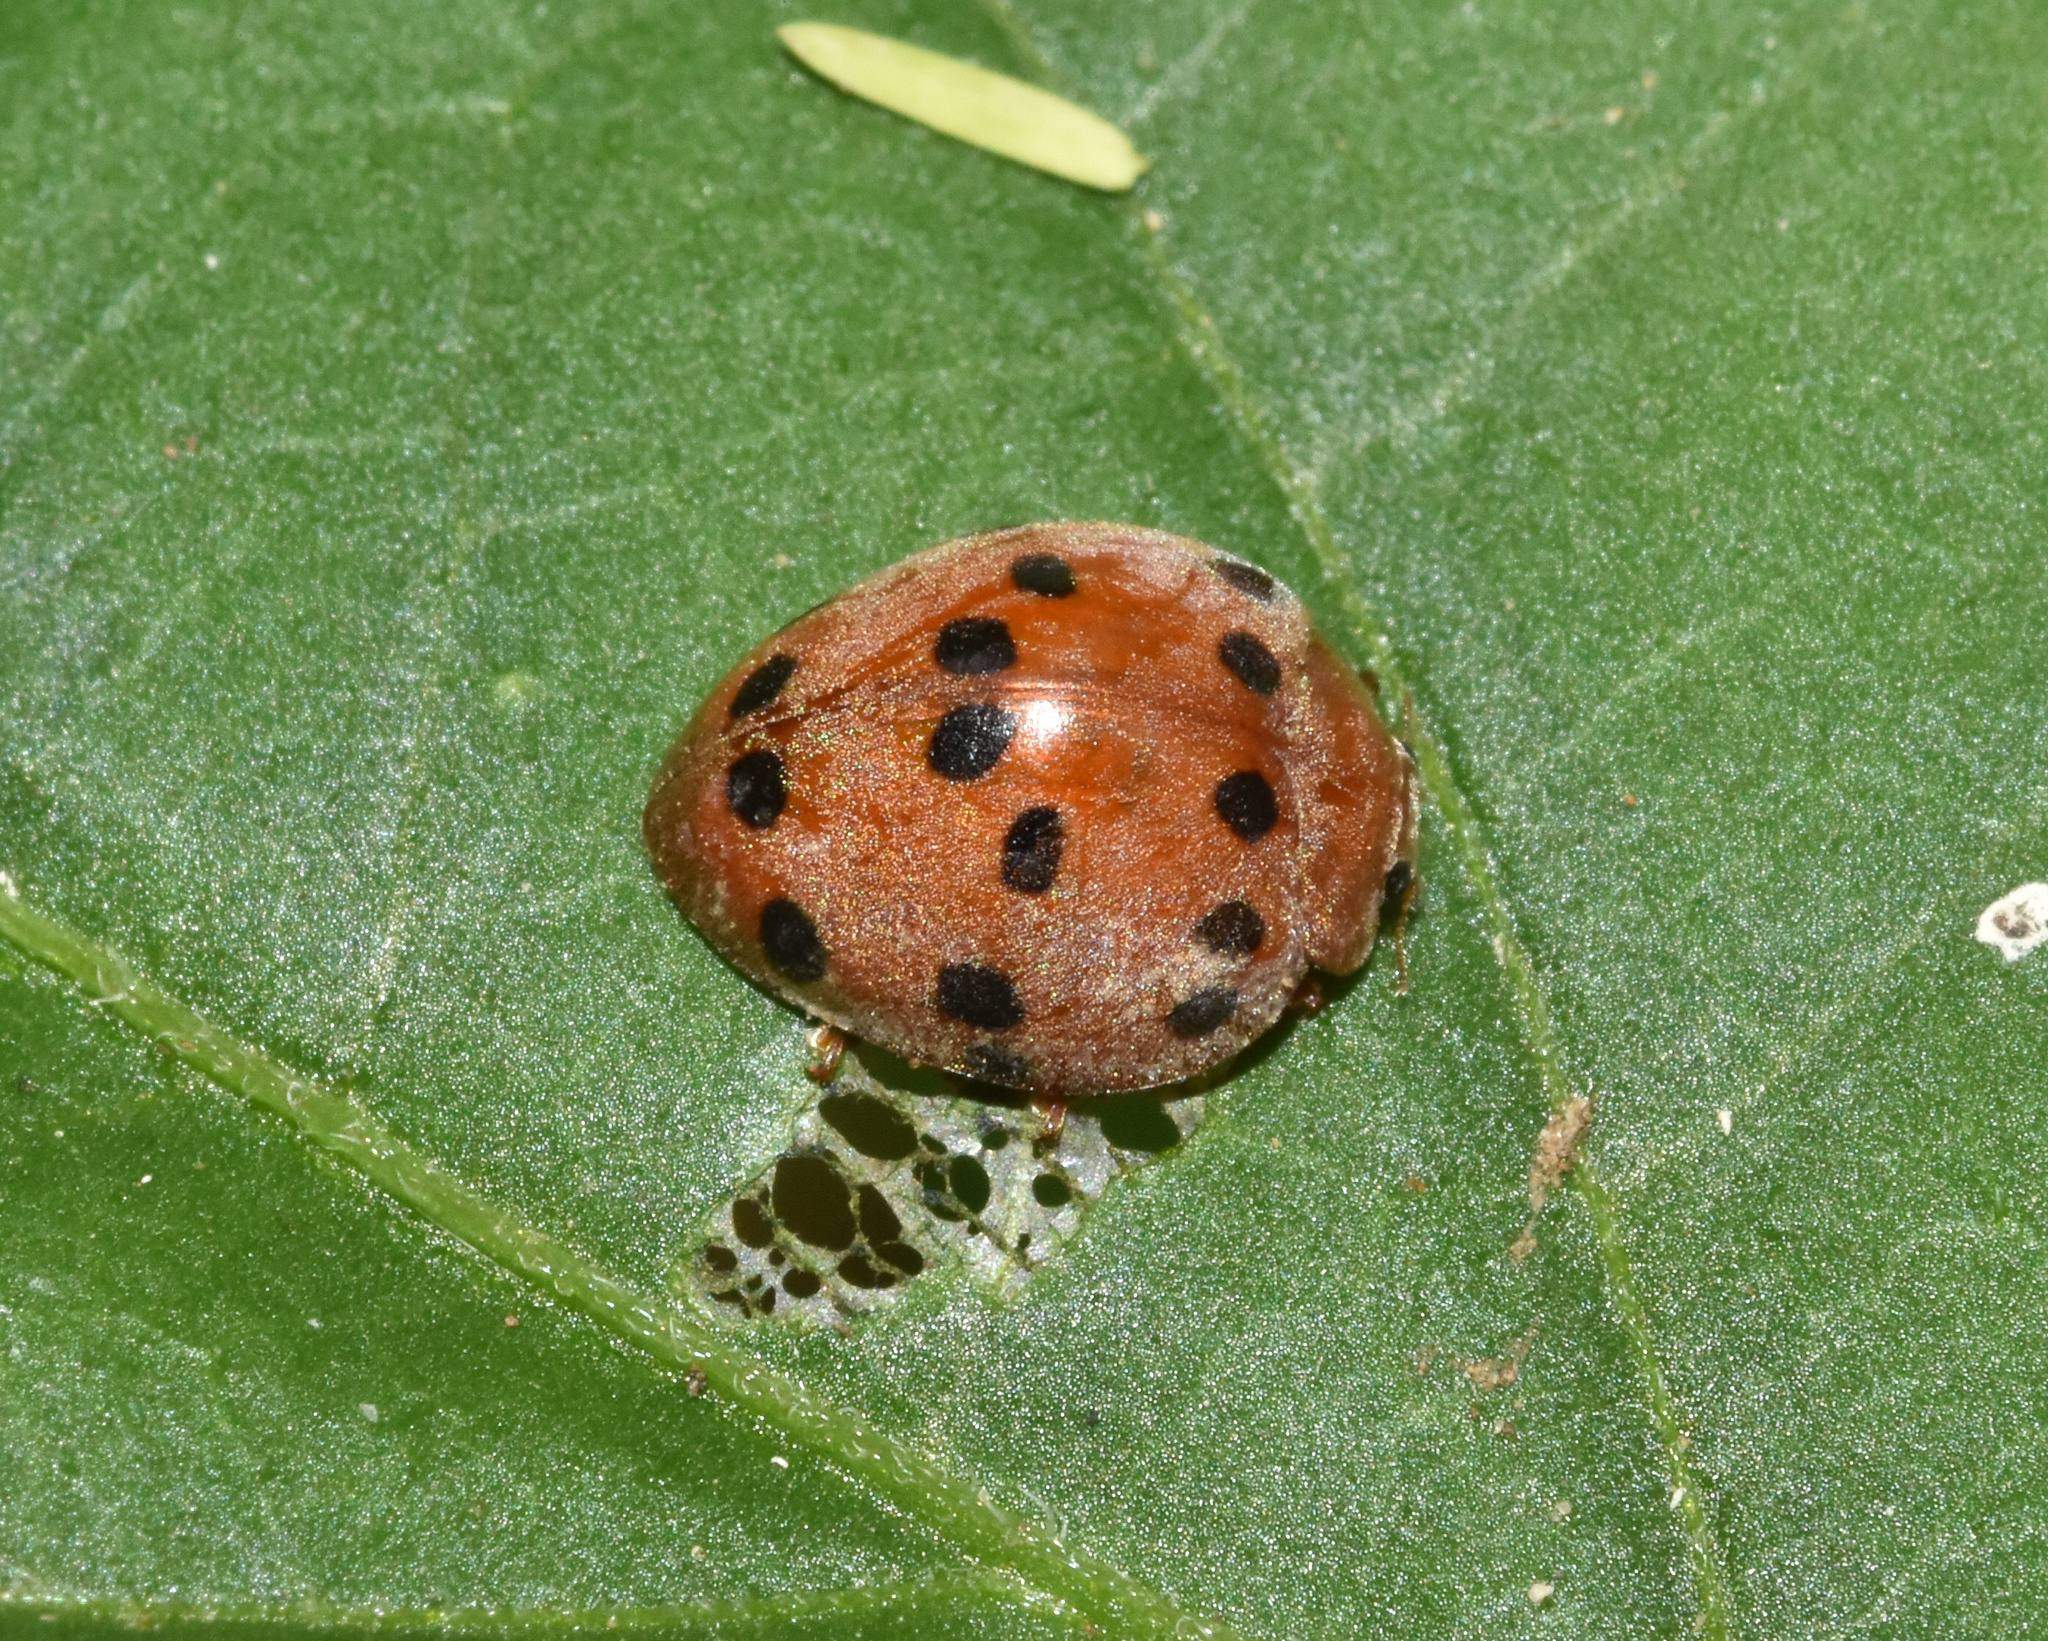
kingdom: Animalia
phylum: Arthropoda
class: Insecta
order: Coleoptera
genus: Solanophila
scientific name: Solanophila
